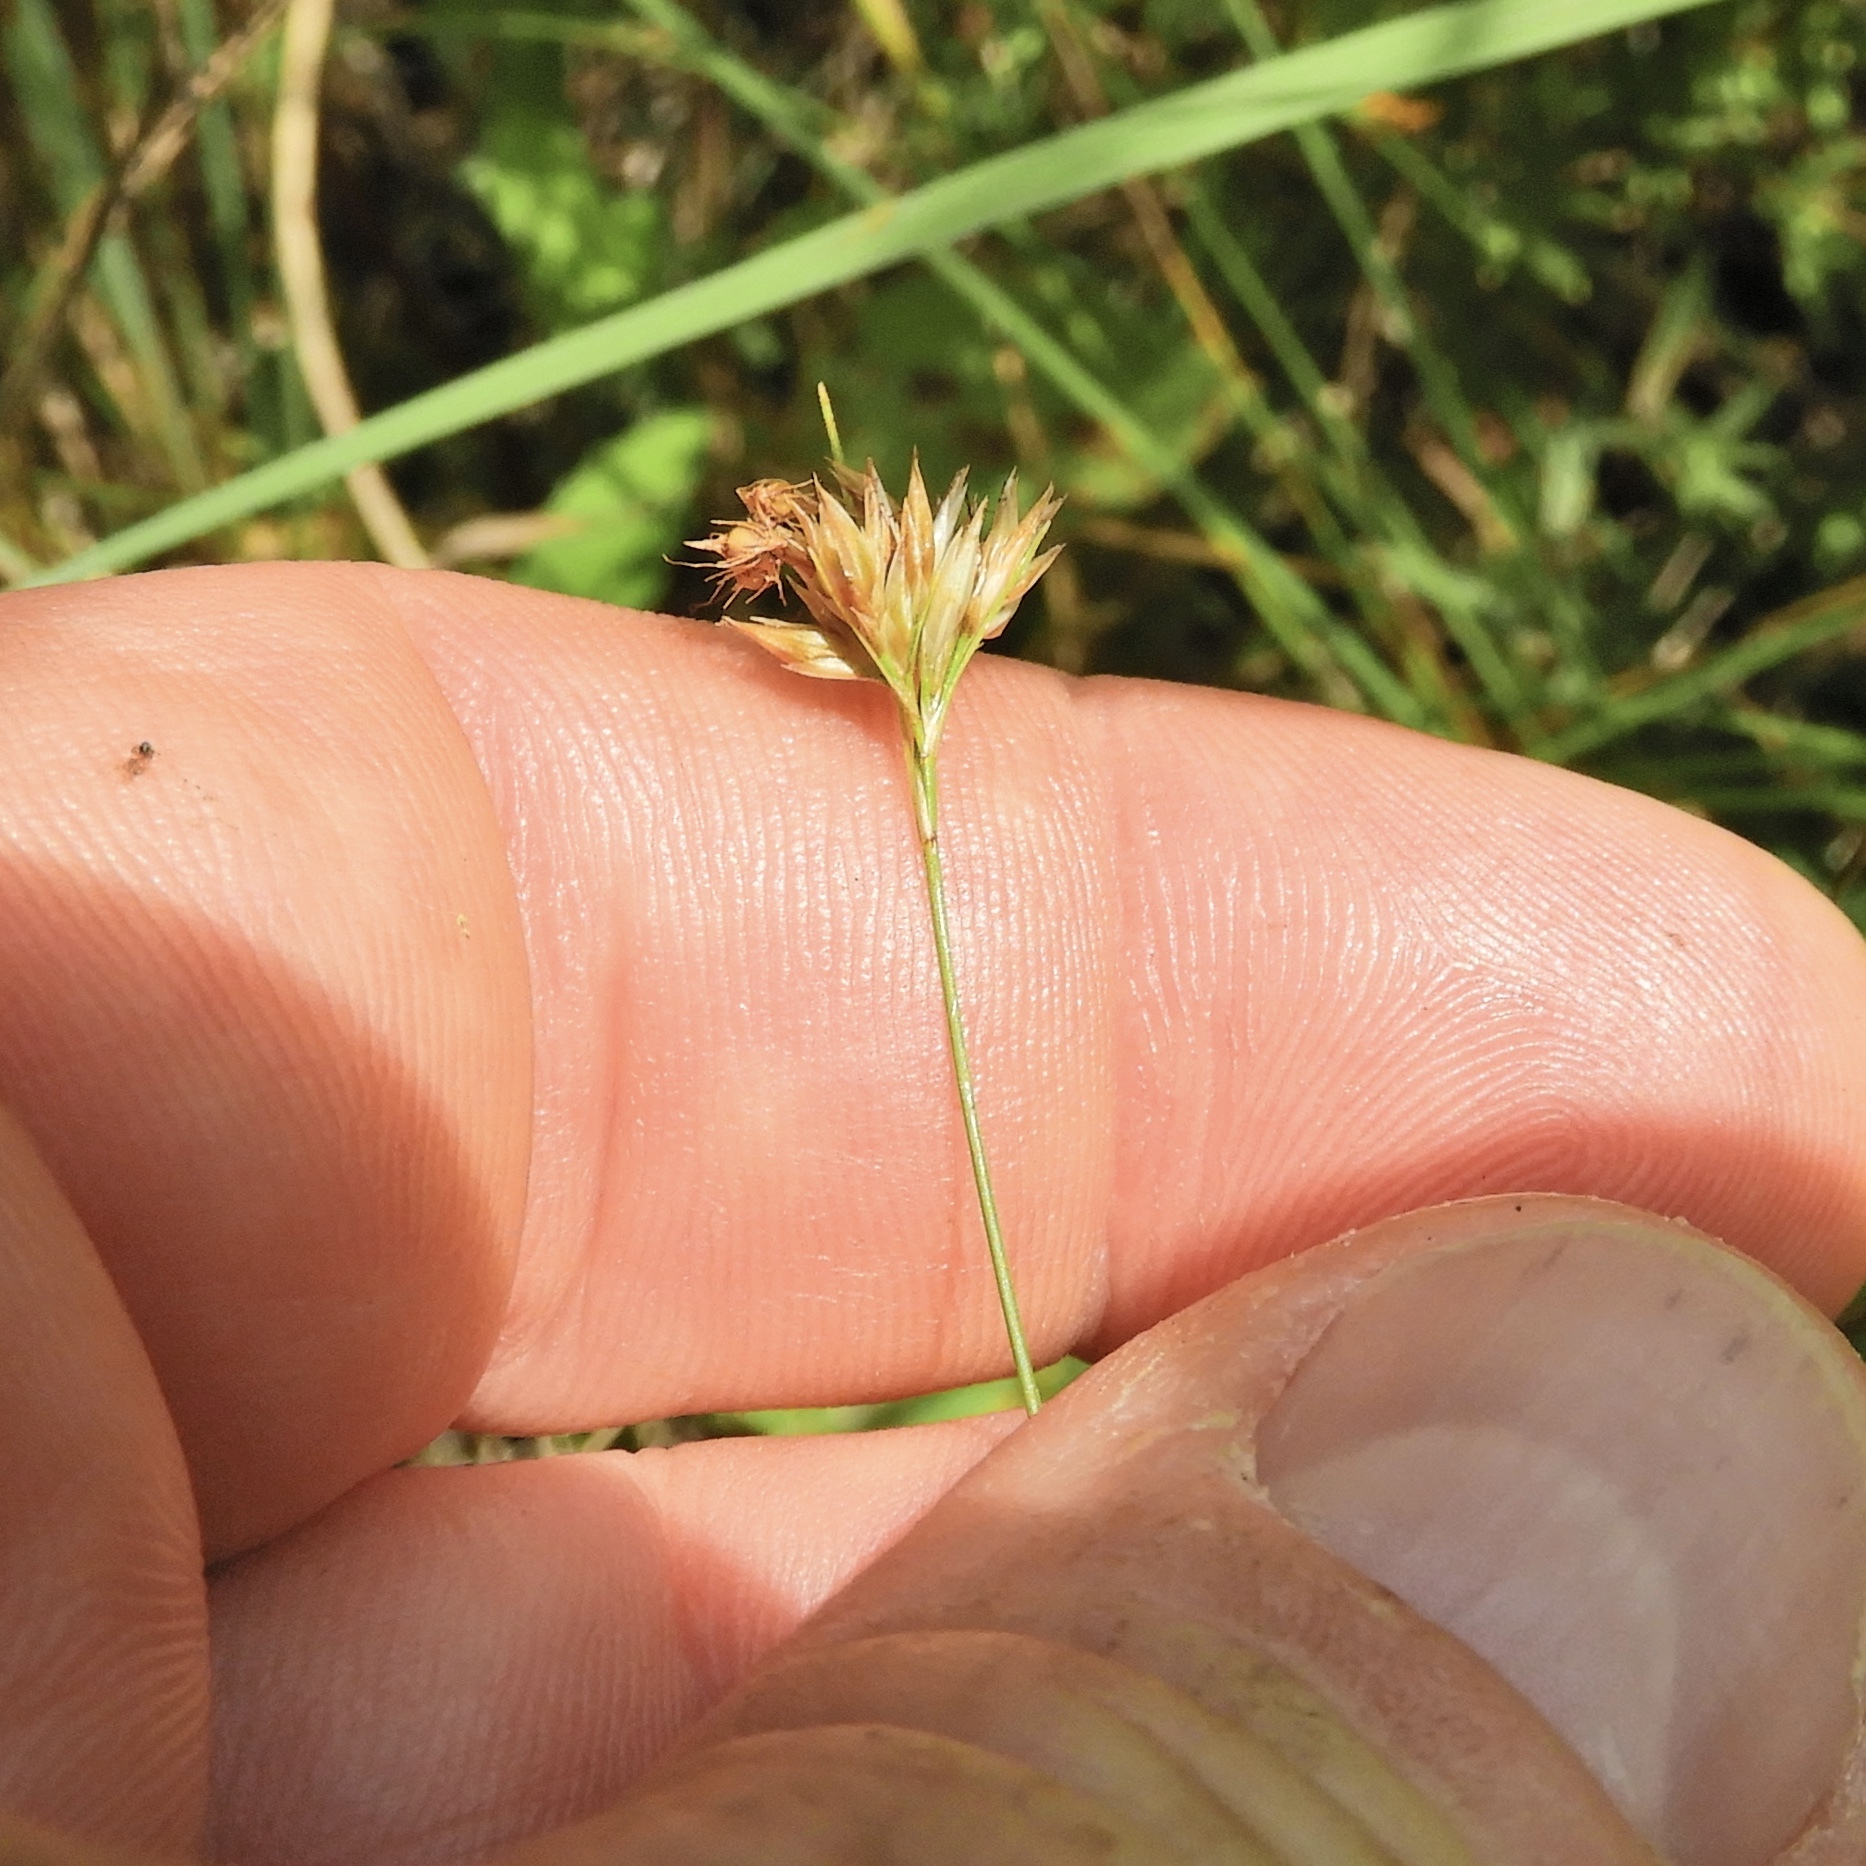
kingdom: Plantae
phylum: Tracheophyta
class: Liliopsida
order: Poales
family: Cyperaceae
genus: Rhynchospora
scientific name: Rhynchospora alba
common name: White beak-sedge
